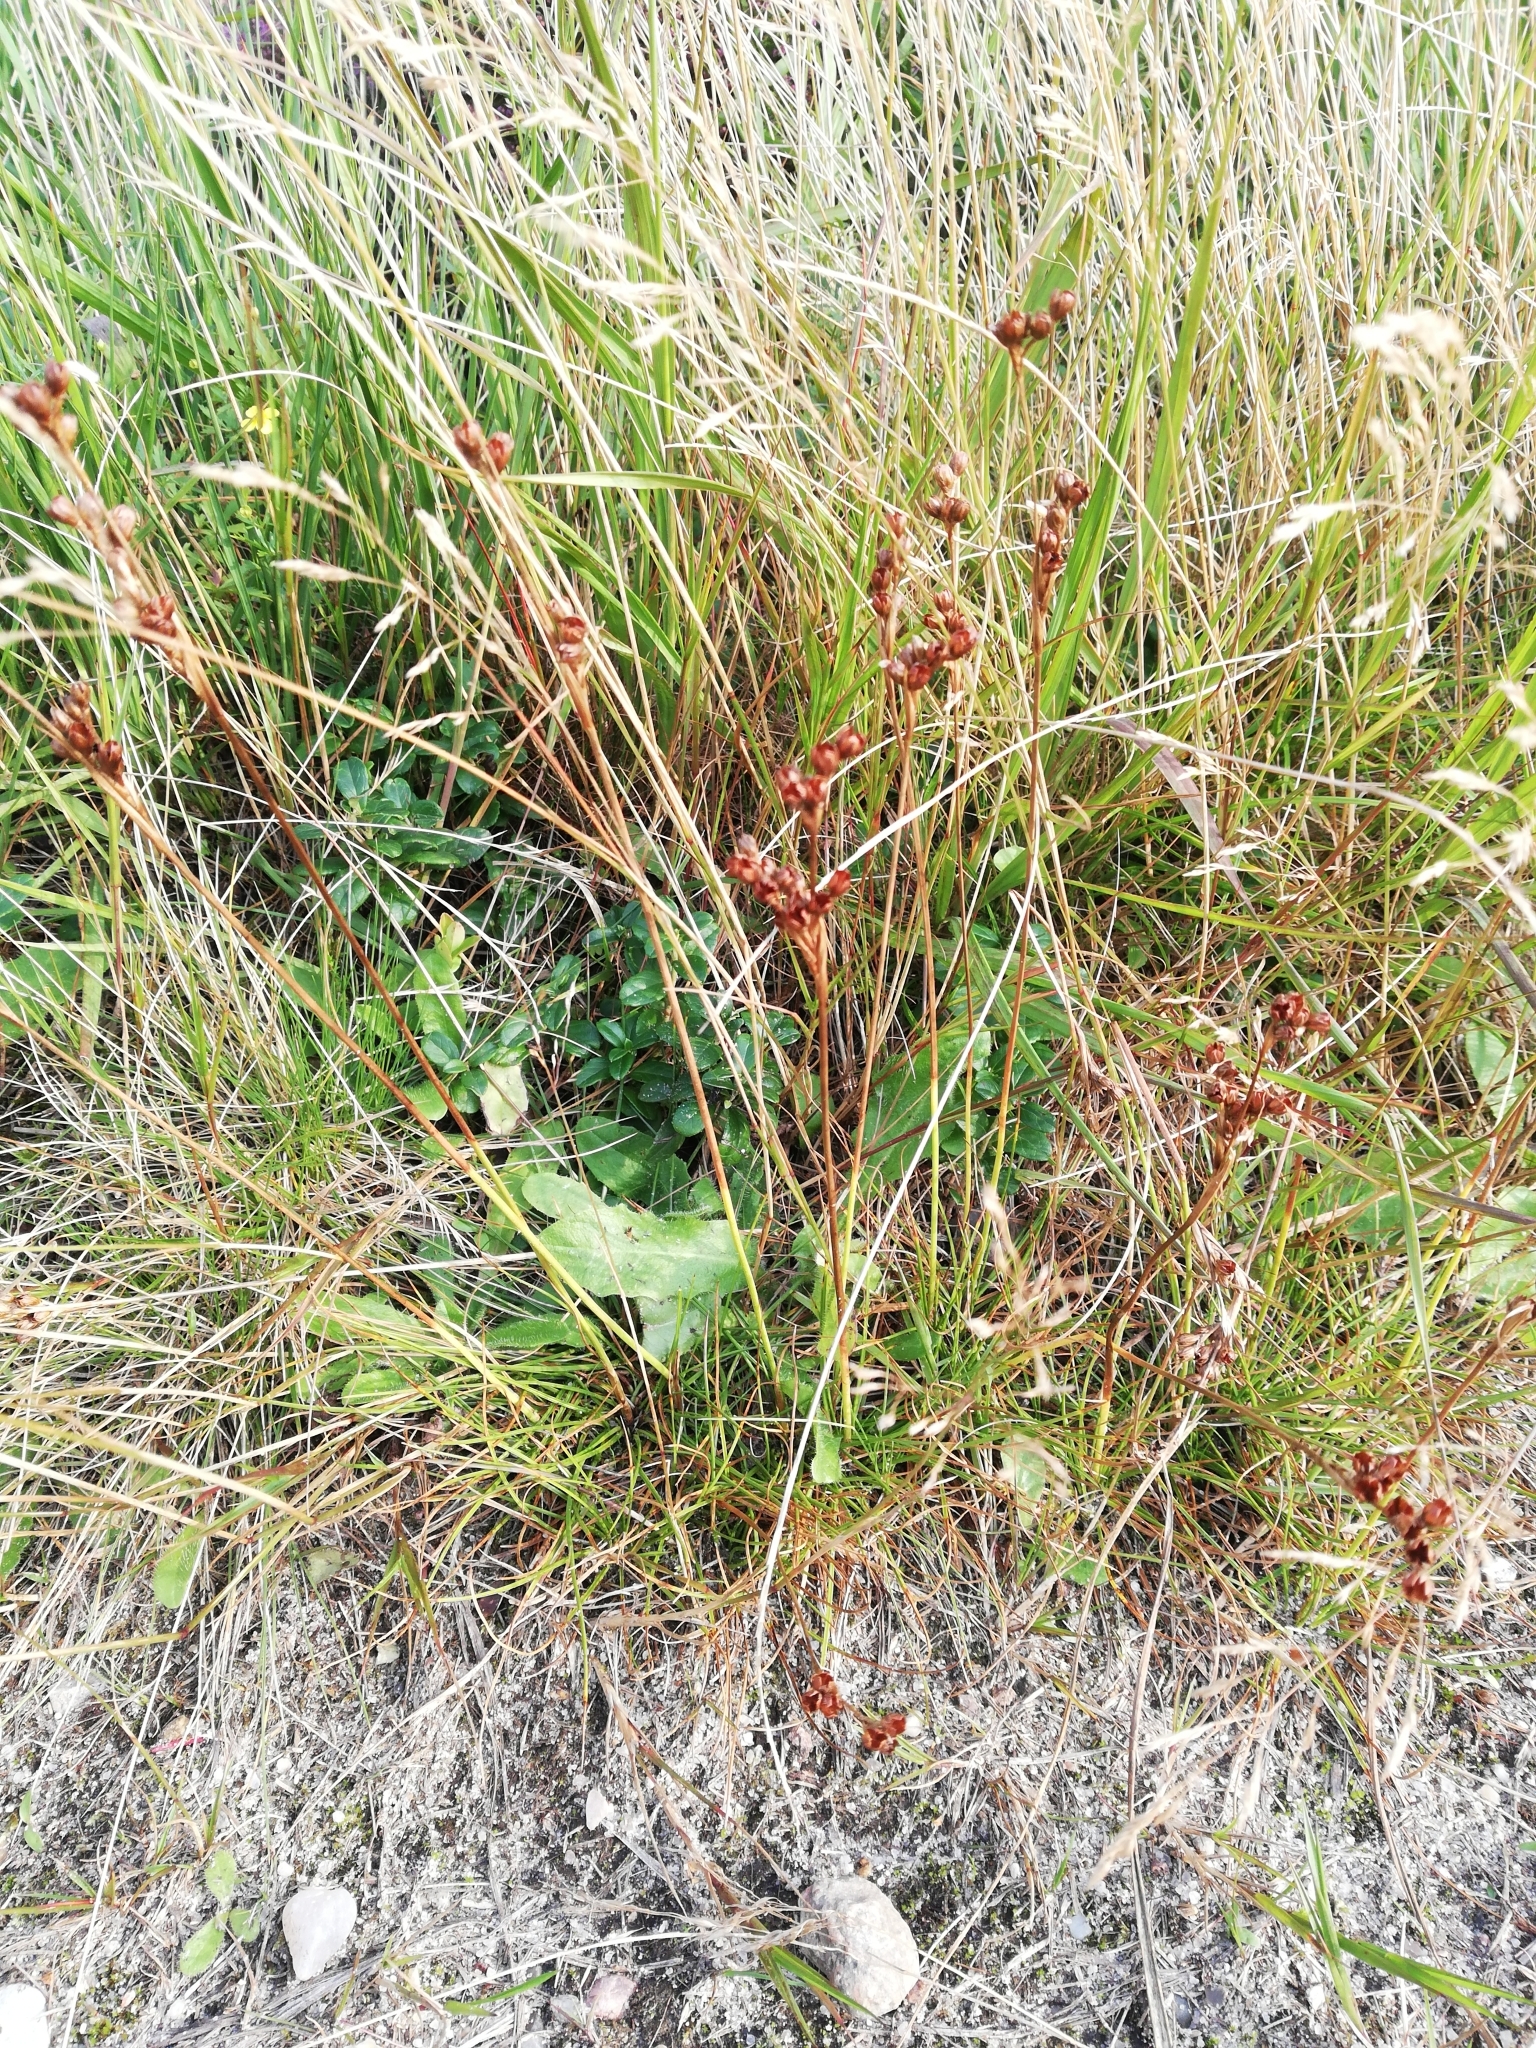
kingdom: Plantae
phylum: Tracheophyta
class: Liliopsida
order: Poales
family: Juncaceae
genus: Juncus
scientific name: Juncus squarrosus
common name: Heath rush
